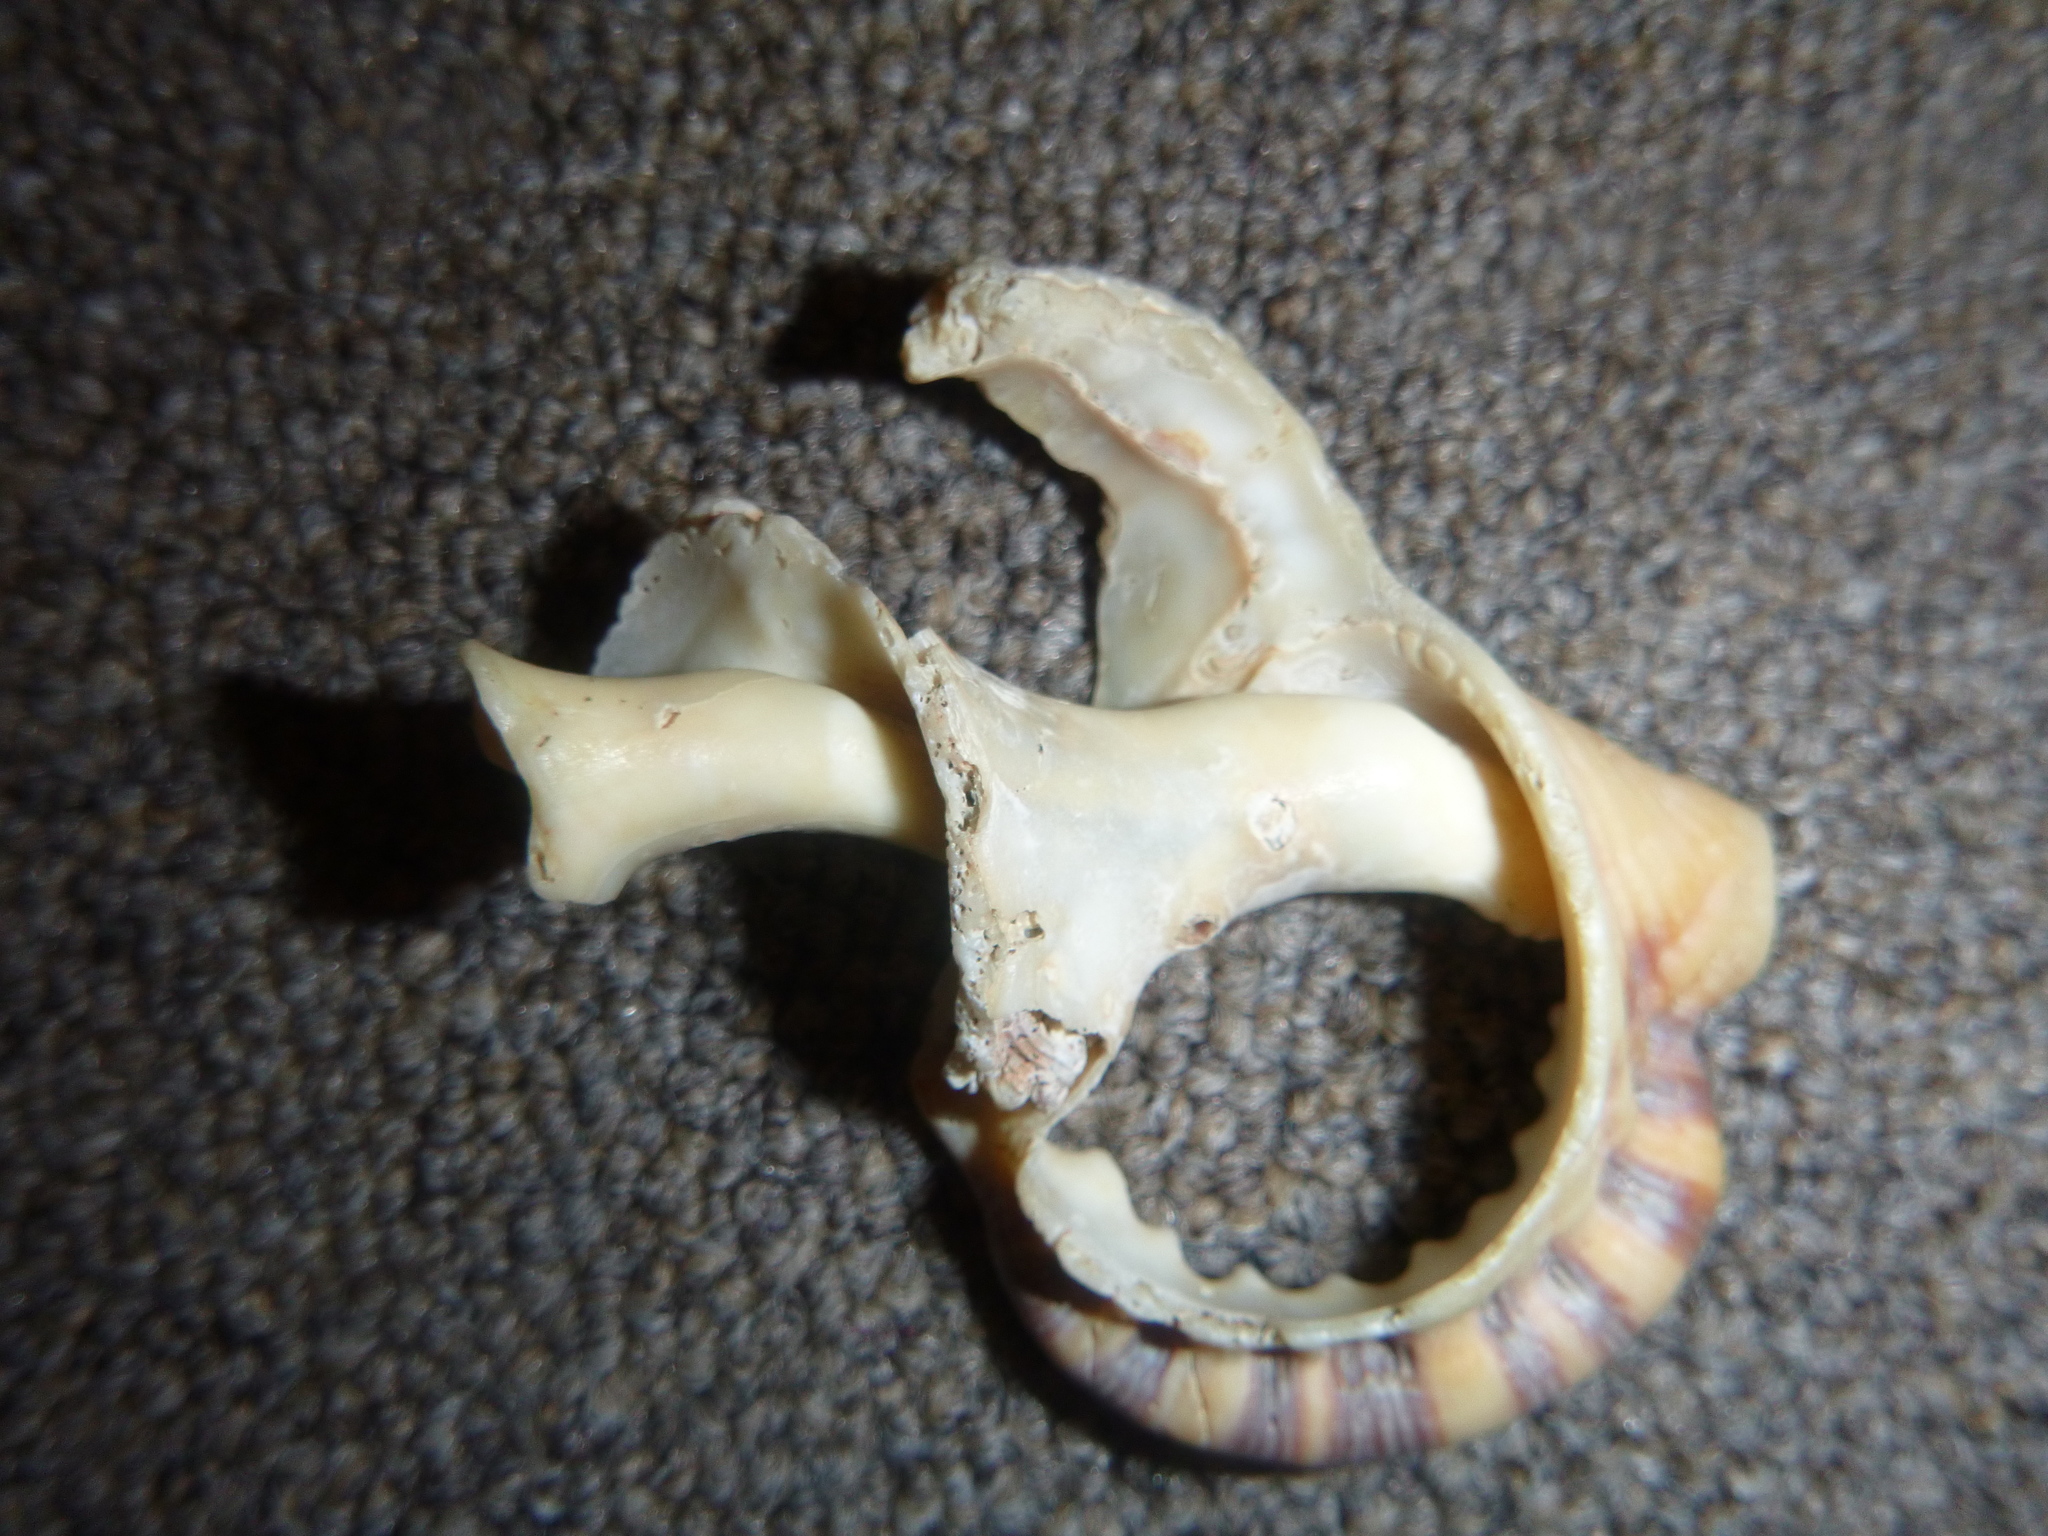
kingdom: Animalia
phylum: Mollusca
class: Gastropoda
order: Littorinimorpha
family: Ranellidae
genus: Ranella
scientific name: Ranella australasia
